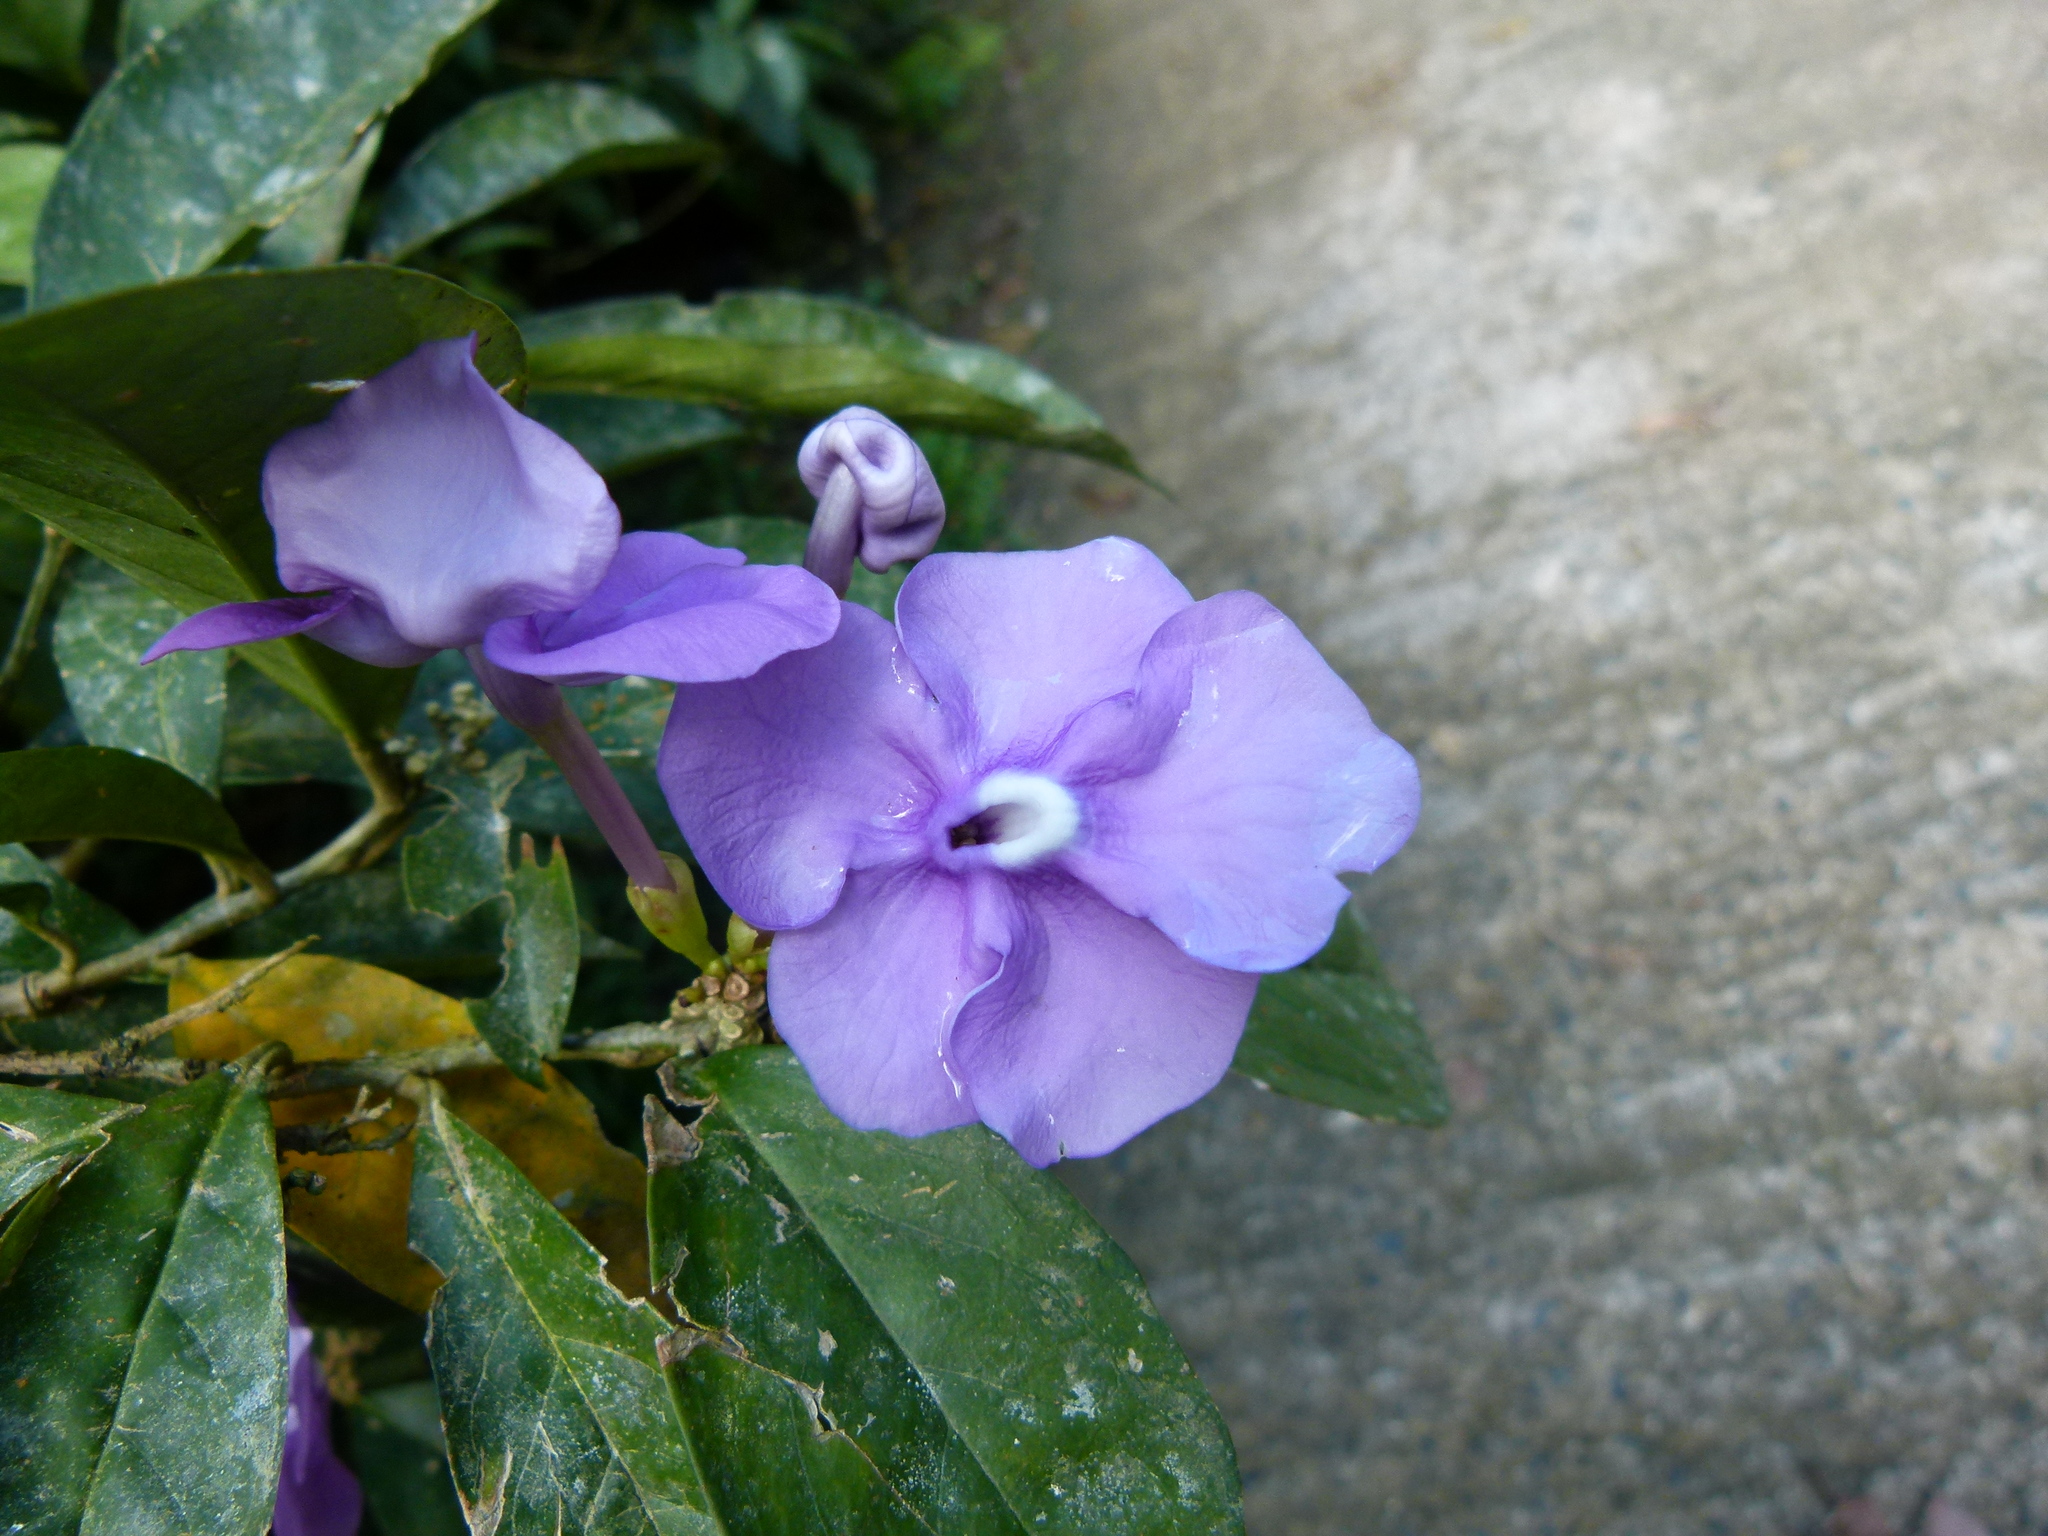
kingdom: Plantae
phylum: Tracheophyta
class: Magnoliopsida
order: Solanales
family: Solanaceae
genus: Brunfelsia
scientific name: Brunfelsia pauciflora
